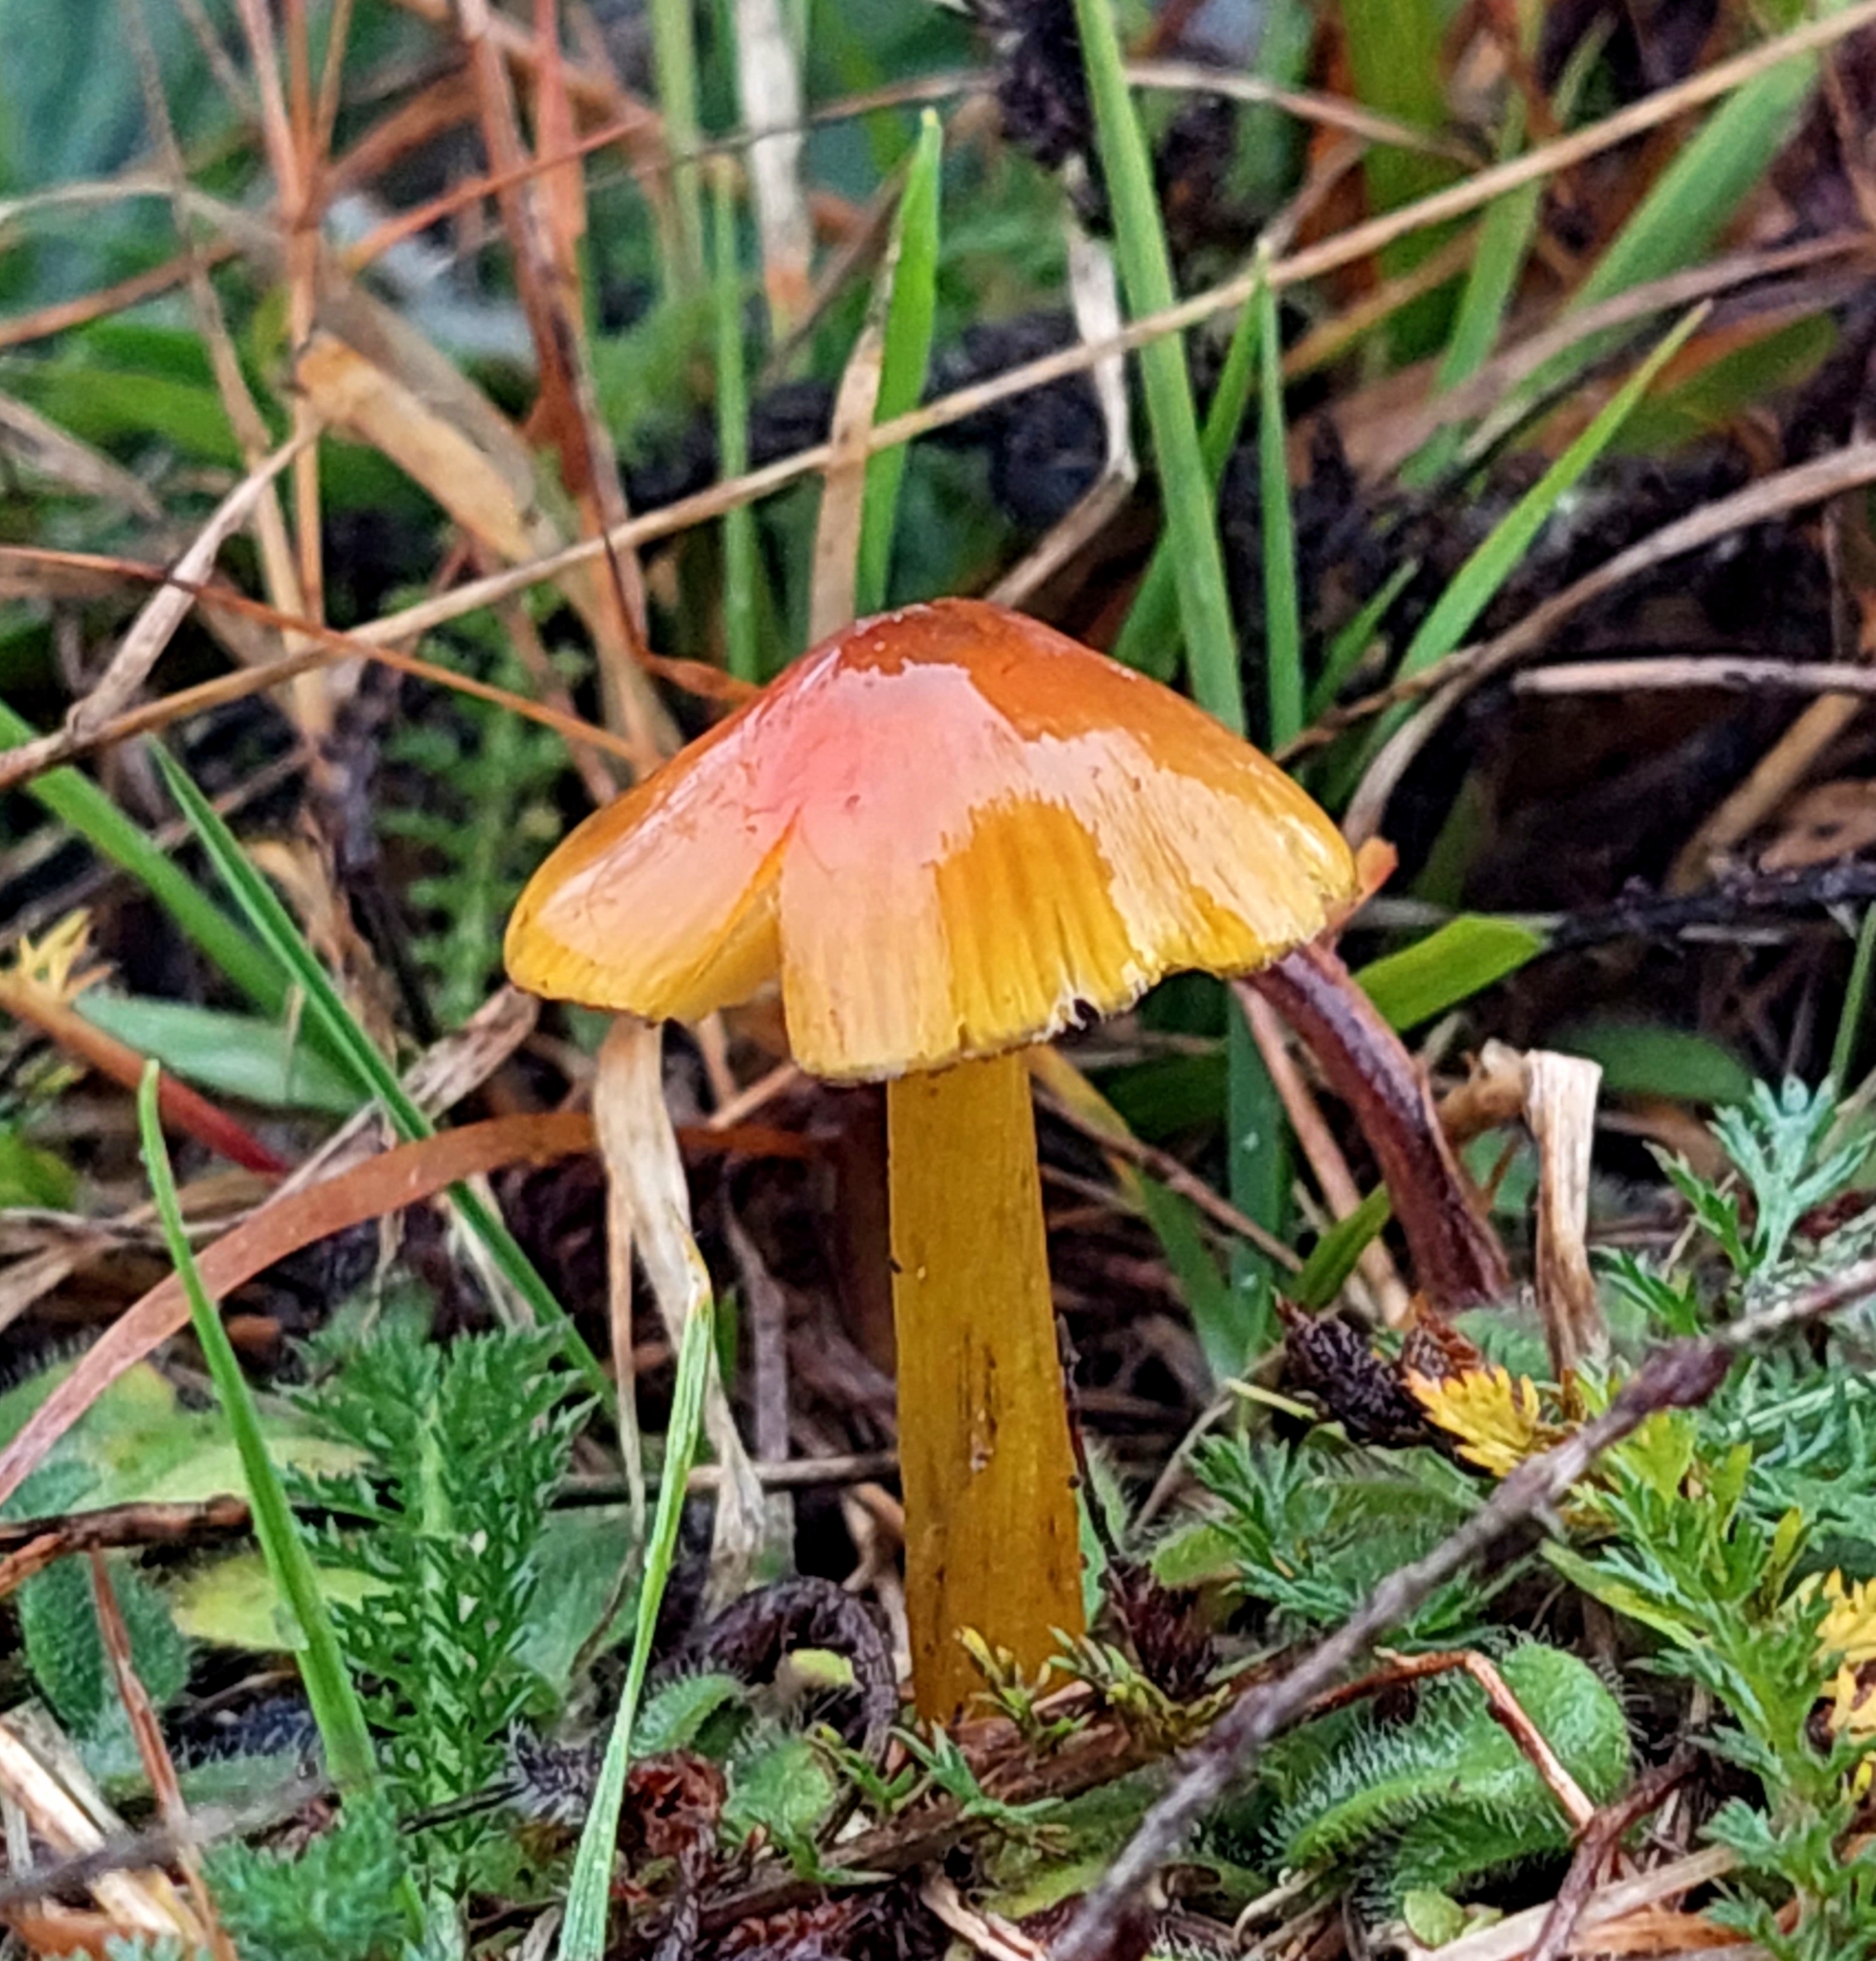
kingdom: Fungi
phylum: Basidiomycota
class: Agaricomycetes
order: Agaricales
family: Hygrophoraceae
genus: Hygrocybe
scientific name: Hygrocybe conica
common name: Blackening wax-cap
